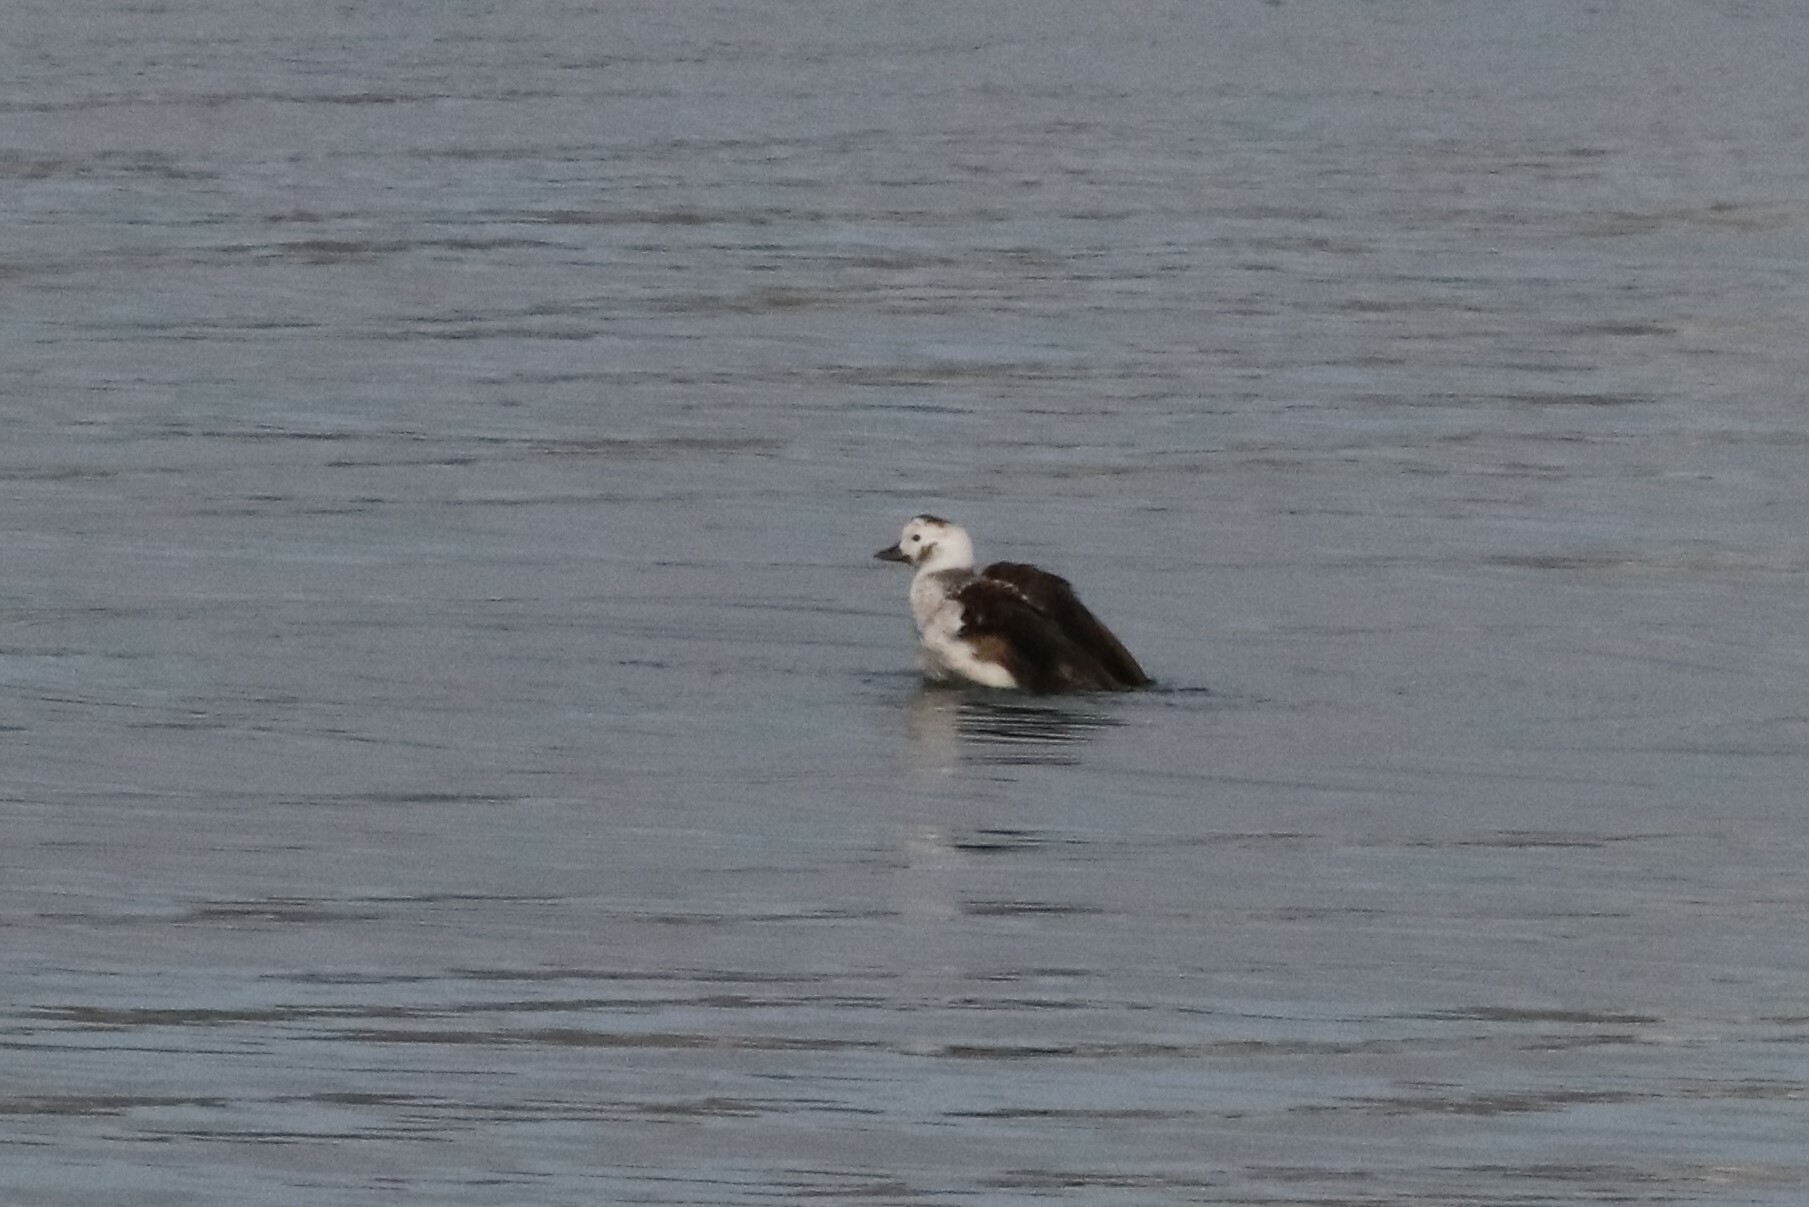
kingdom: Animalia
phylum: Chordata
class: Aves
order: Anseriformes
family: Anatidae
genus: Clangula
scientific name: Clangula hyemalis
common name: Long-tailed duck
